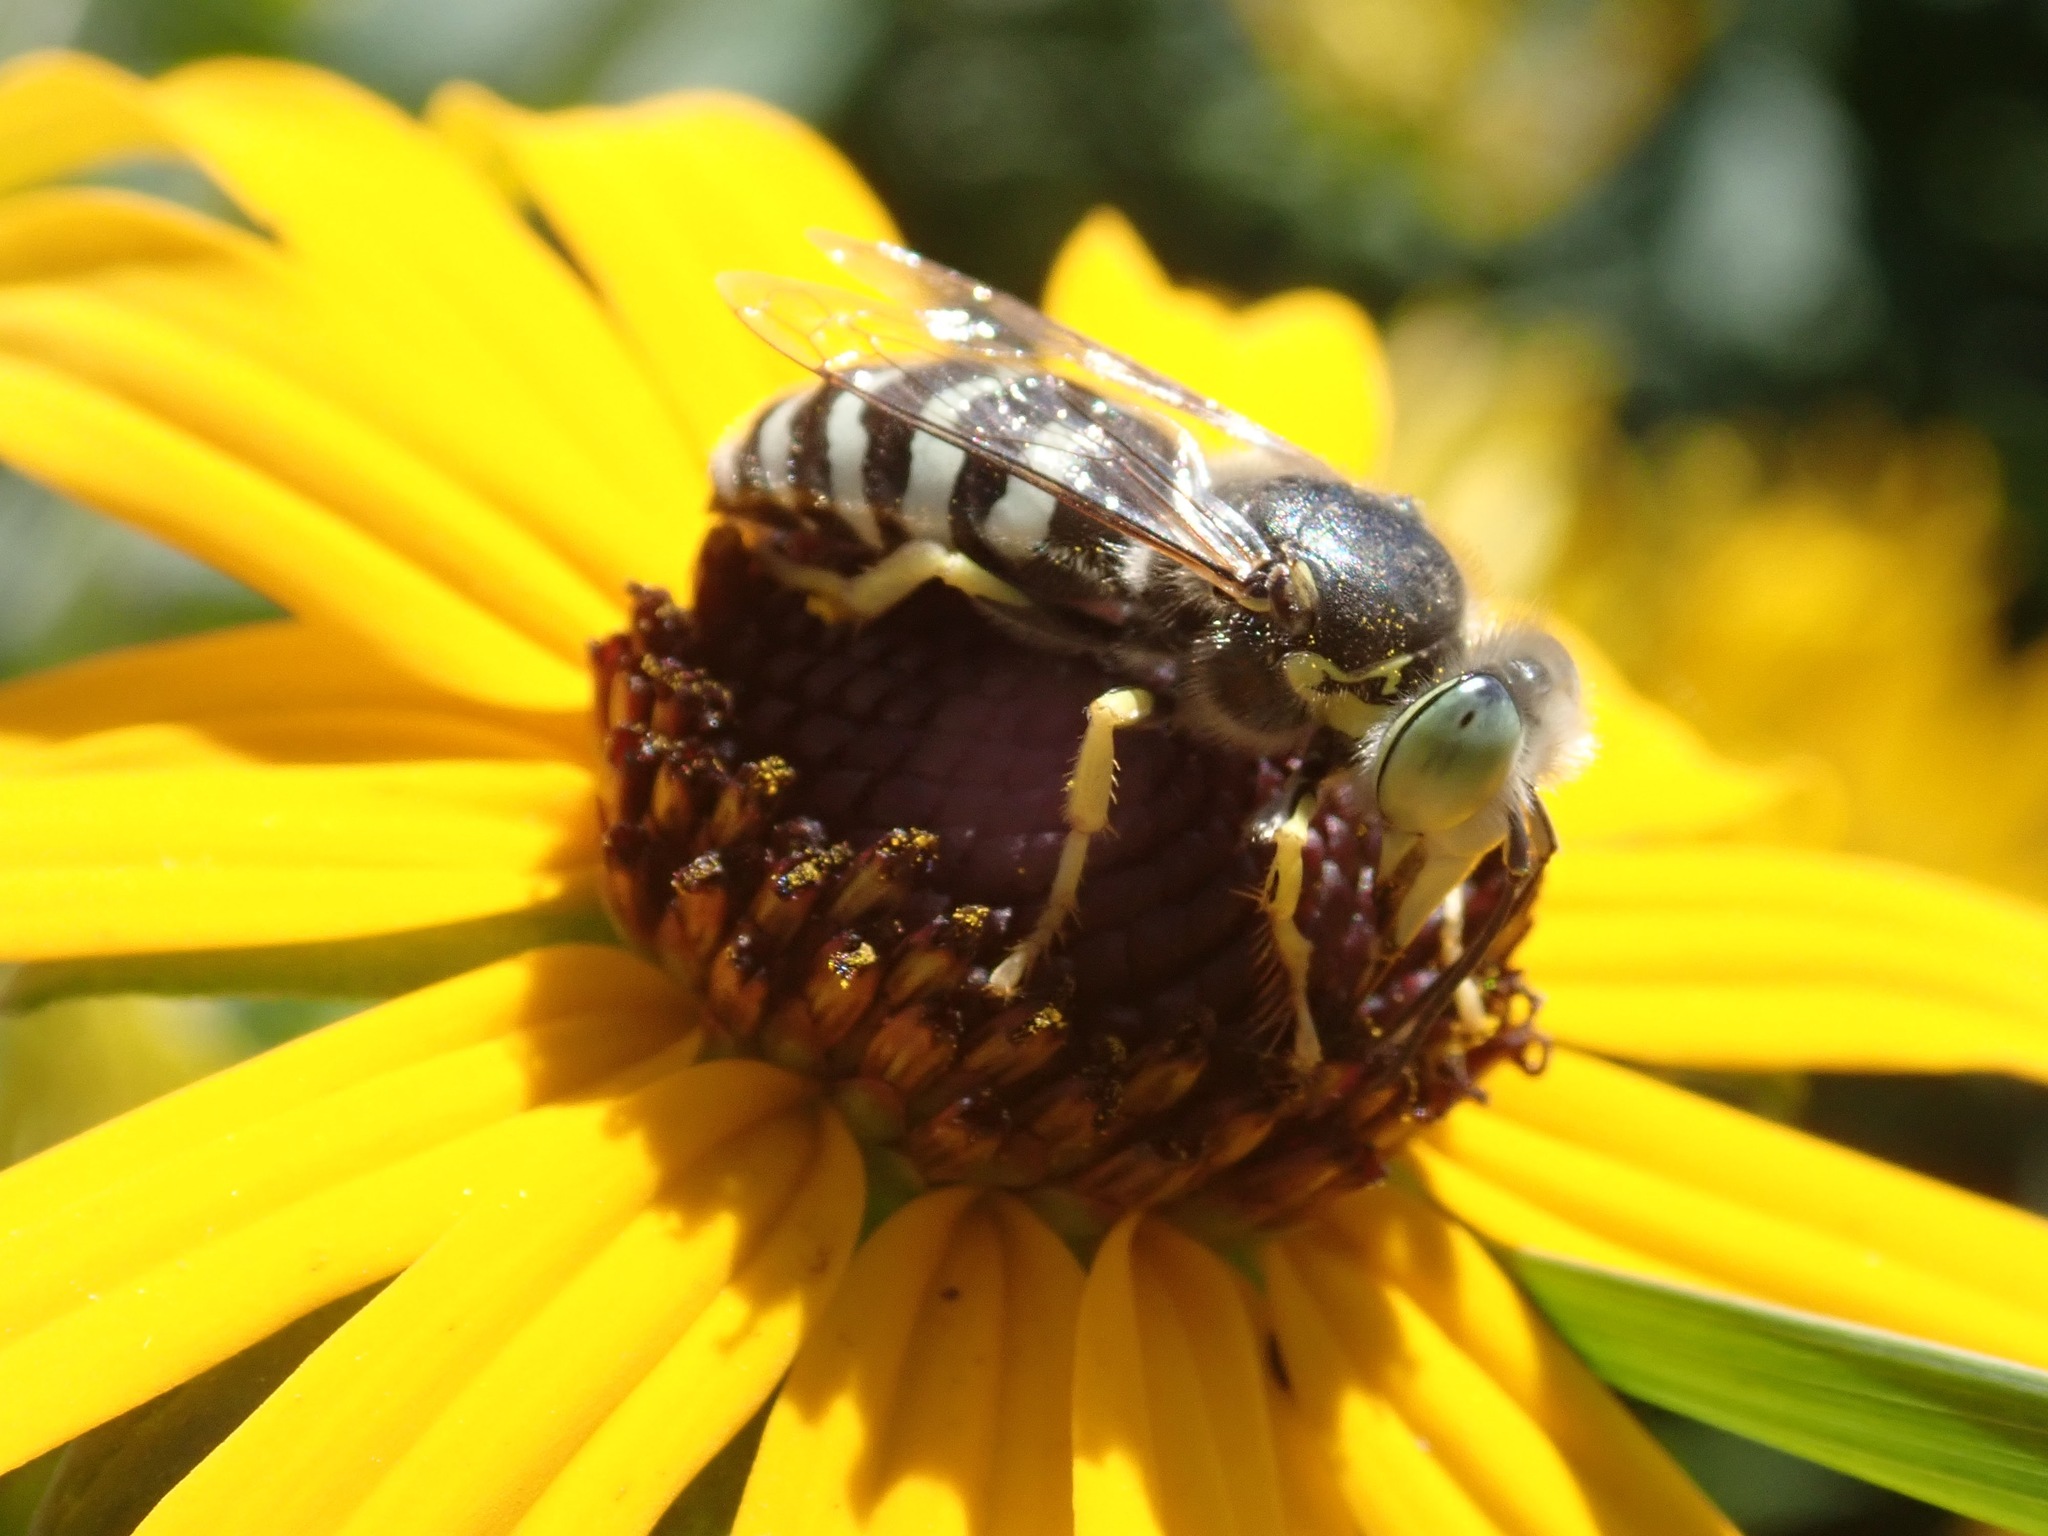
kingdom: Animalia
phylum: Arthropoda
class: Insecta
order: Hymenoptera
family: Crabronidae
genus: Bembix
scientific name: Bembix americana
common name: American sand wasp
